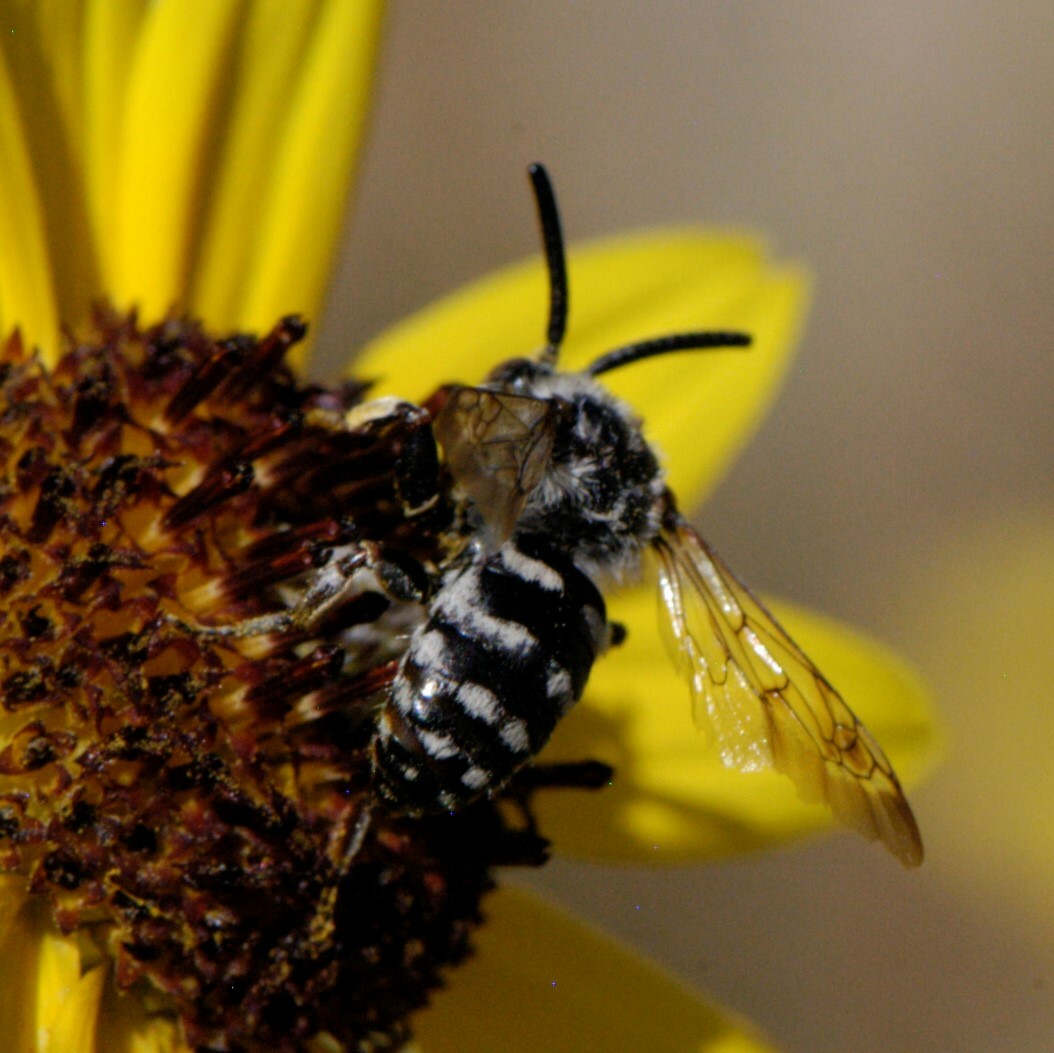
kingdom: Animalia
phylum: Arthropoda
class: Insecta
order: Hymenoptera
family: Apidae
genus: Brachymelecta
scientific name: Brachymelecta californica
